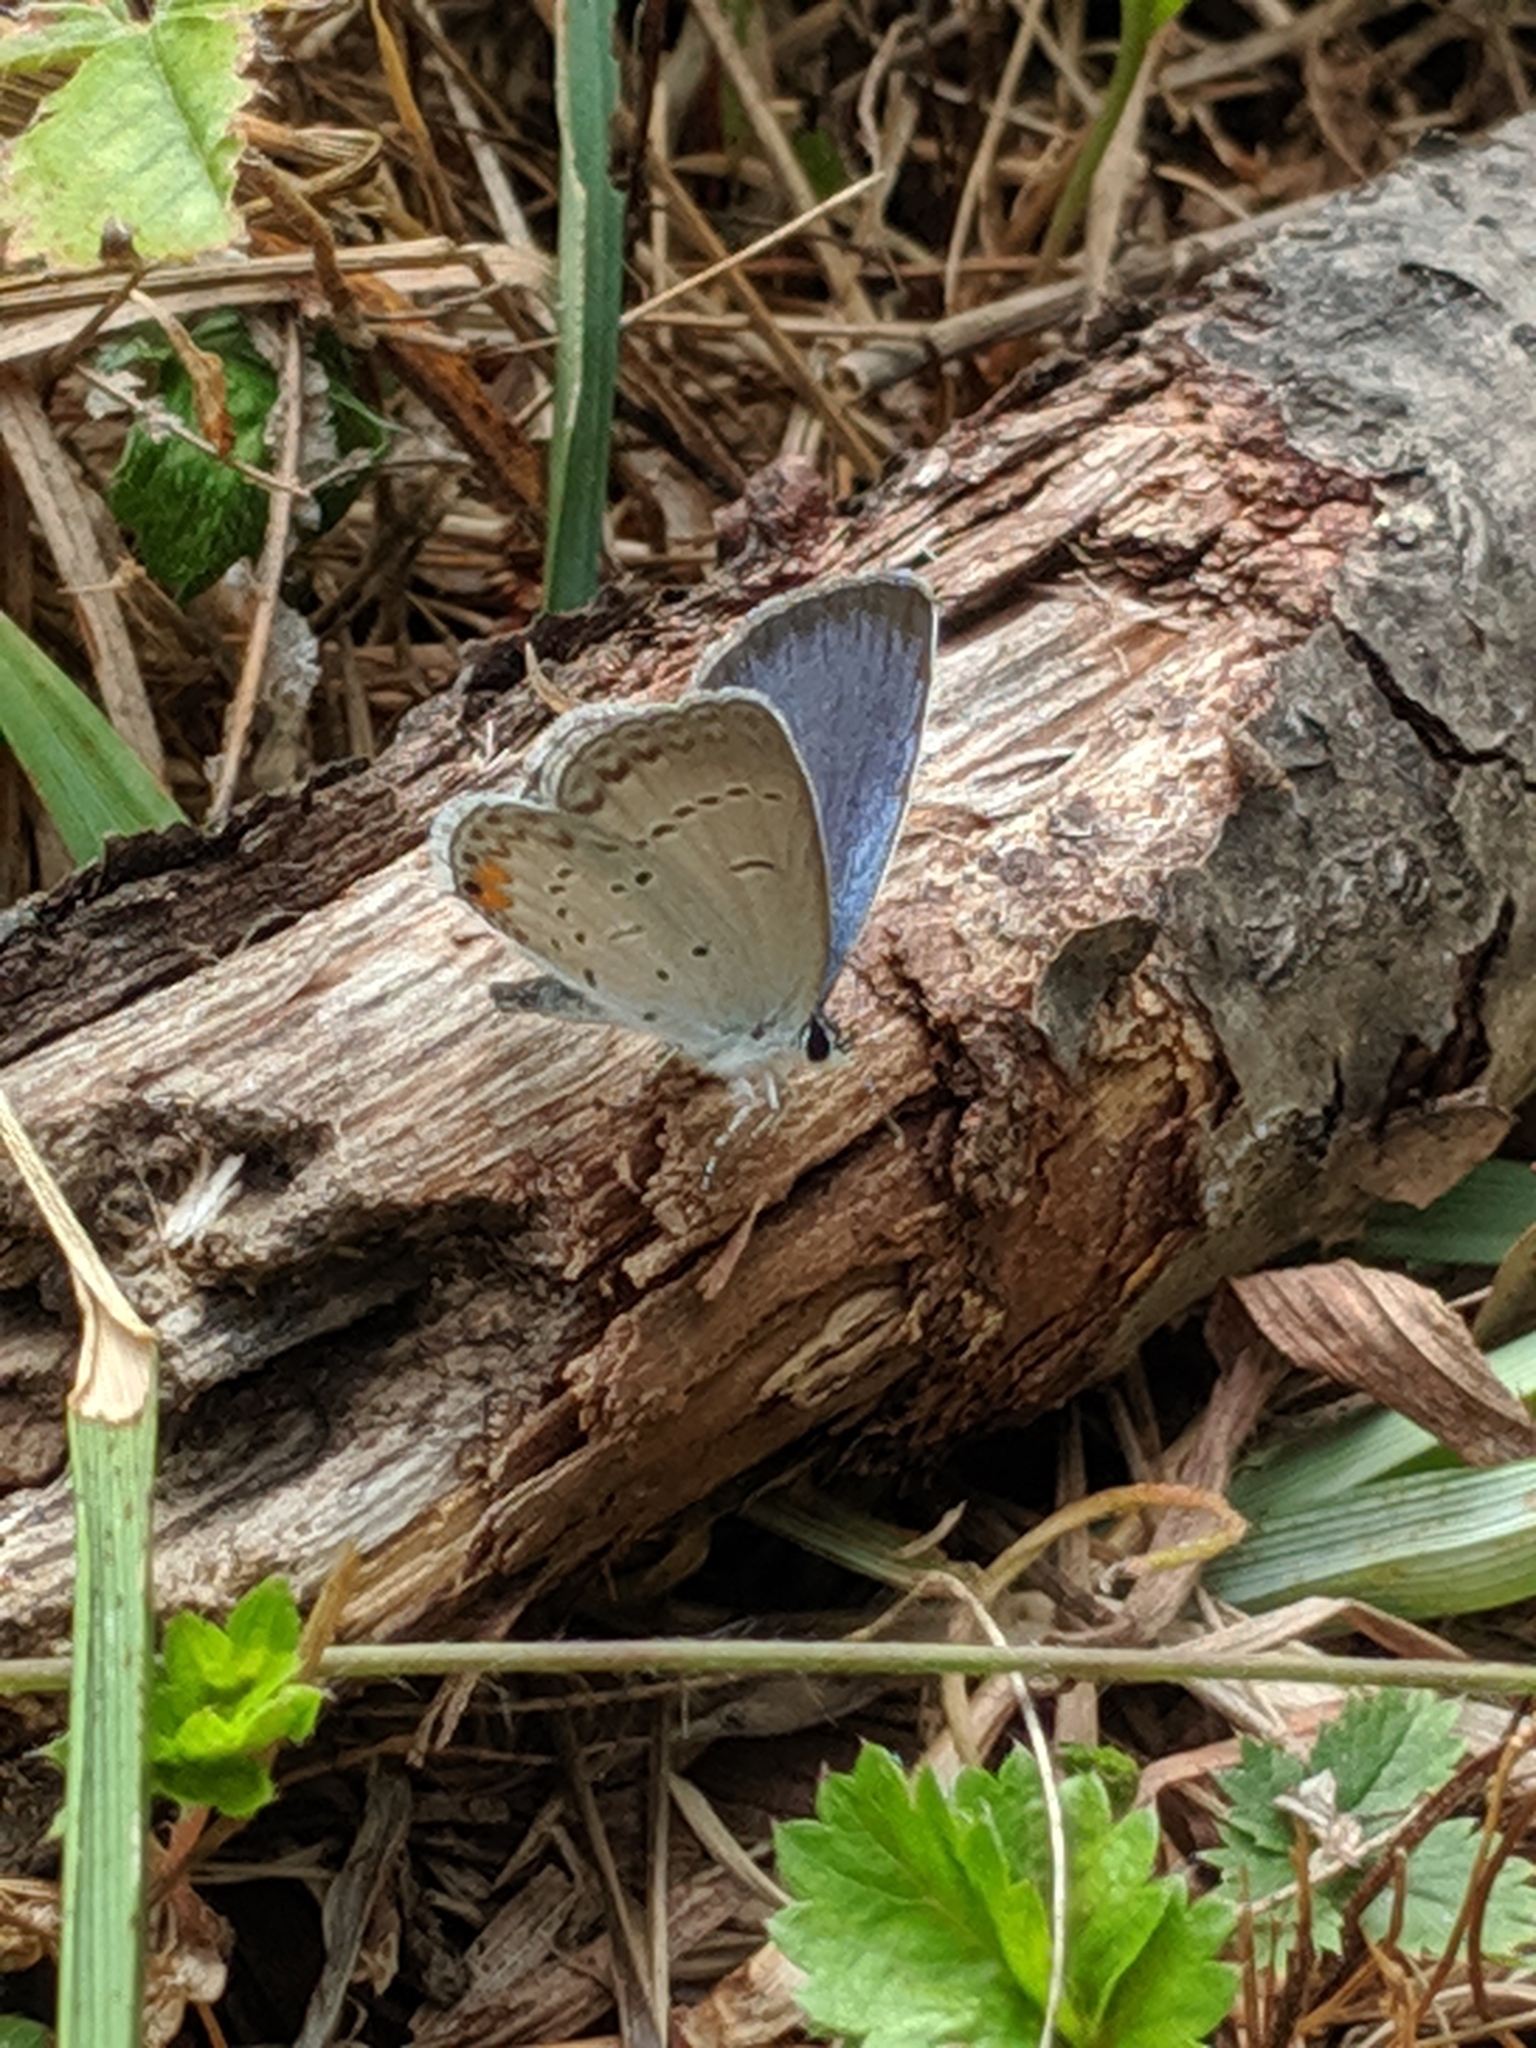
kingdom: Animalia
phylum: Arthropoda
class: Insecta
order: Lepidoptera
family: Lycaenidae
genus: Elkalyce
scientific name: Elkalyce comyntas
